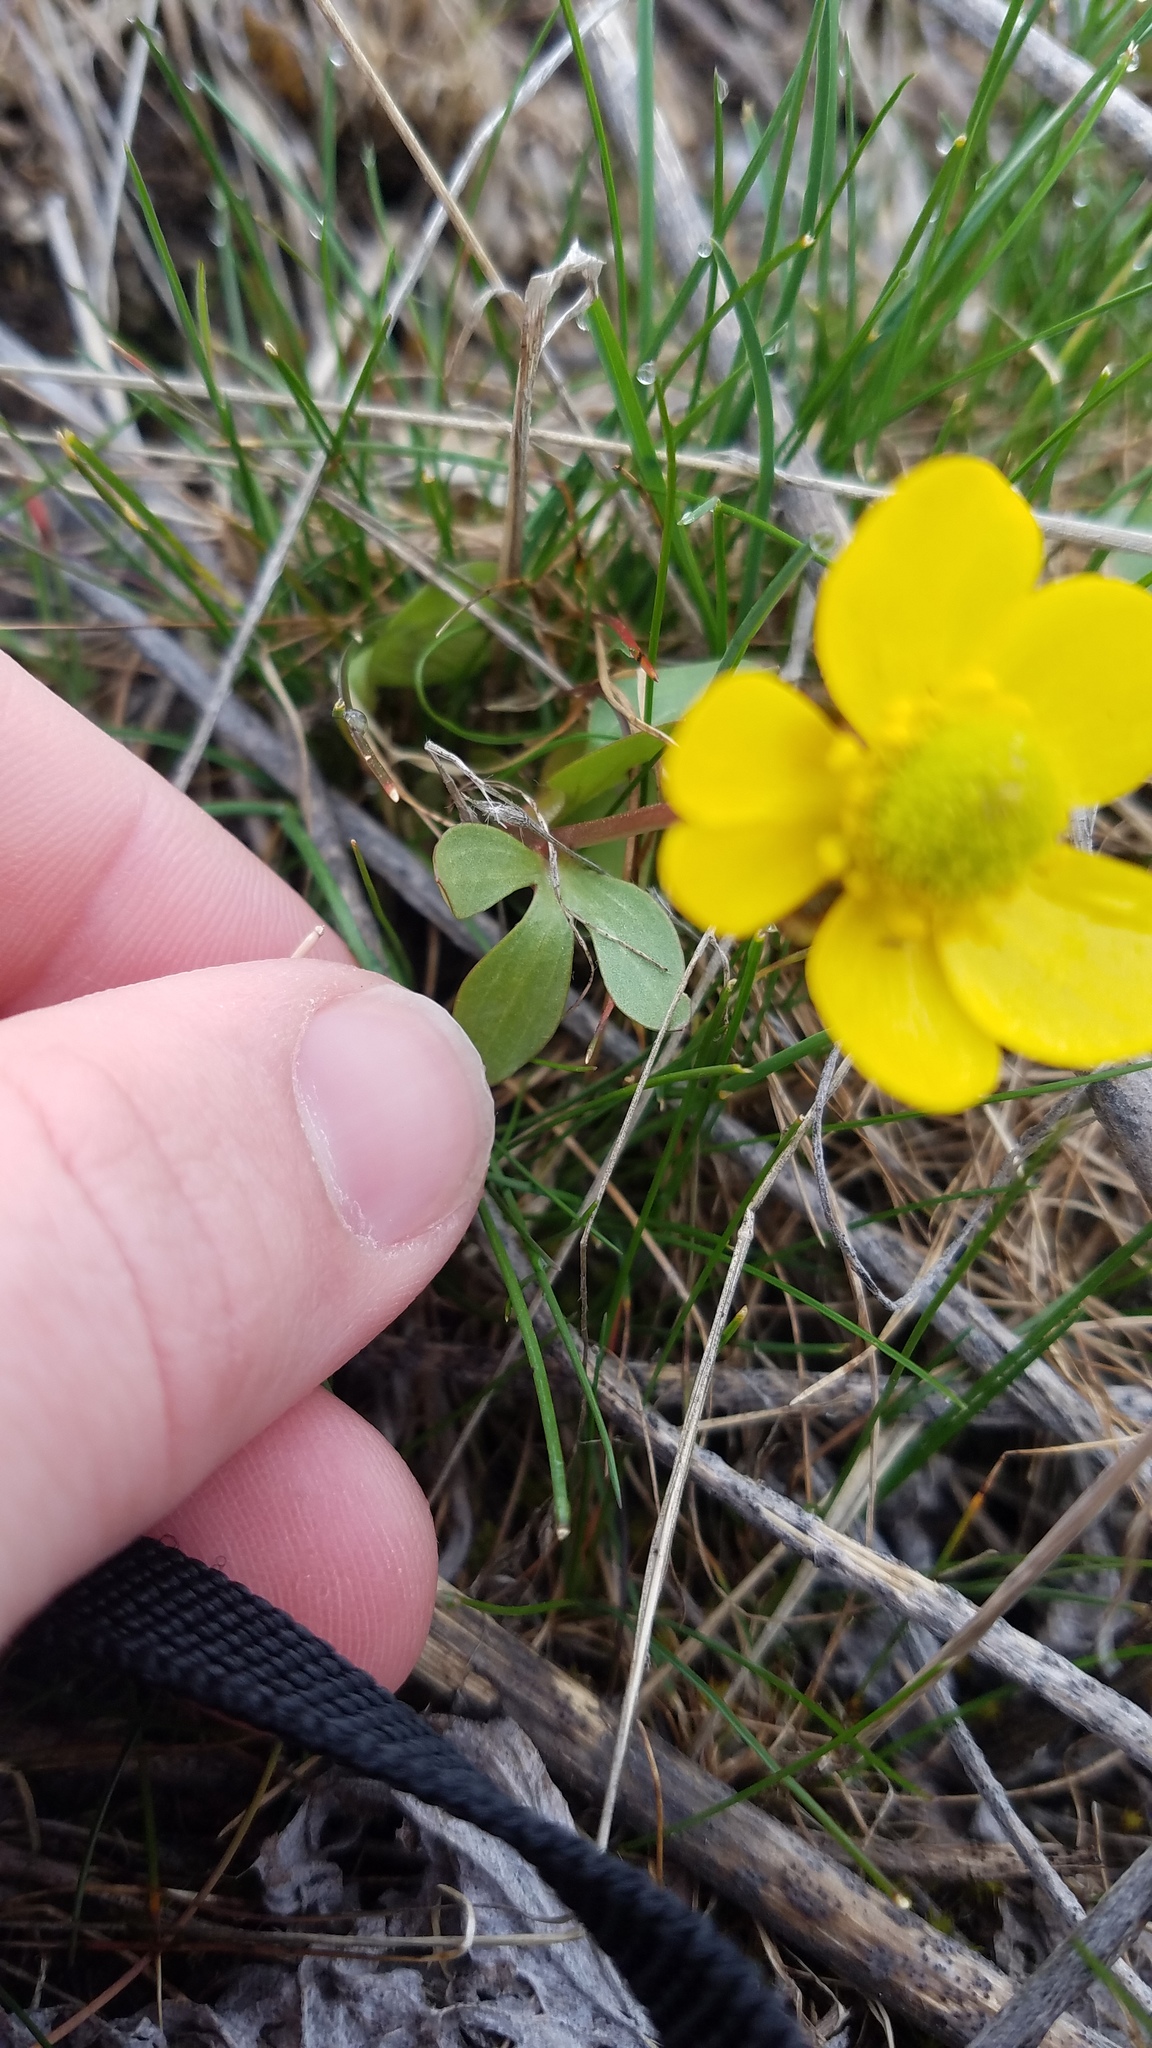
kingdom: Plantae
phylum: Tracheophyta
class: Magnoliopsida
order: Ranunculales
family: Ranunculaceae
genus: Ranunculus
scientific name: Ranunculus glaberrimus
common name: Sagebrush buttercup
